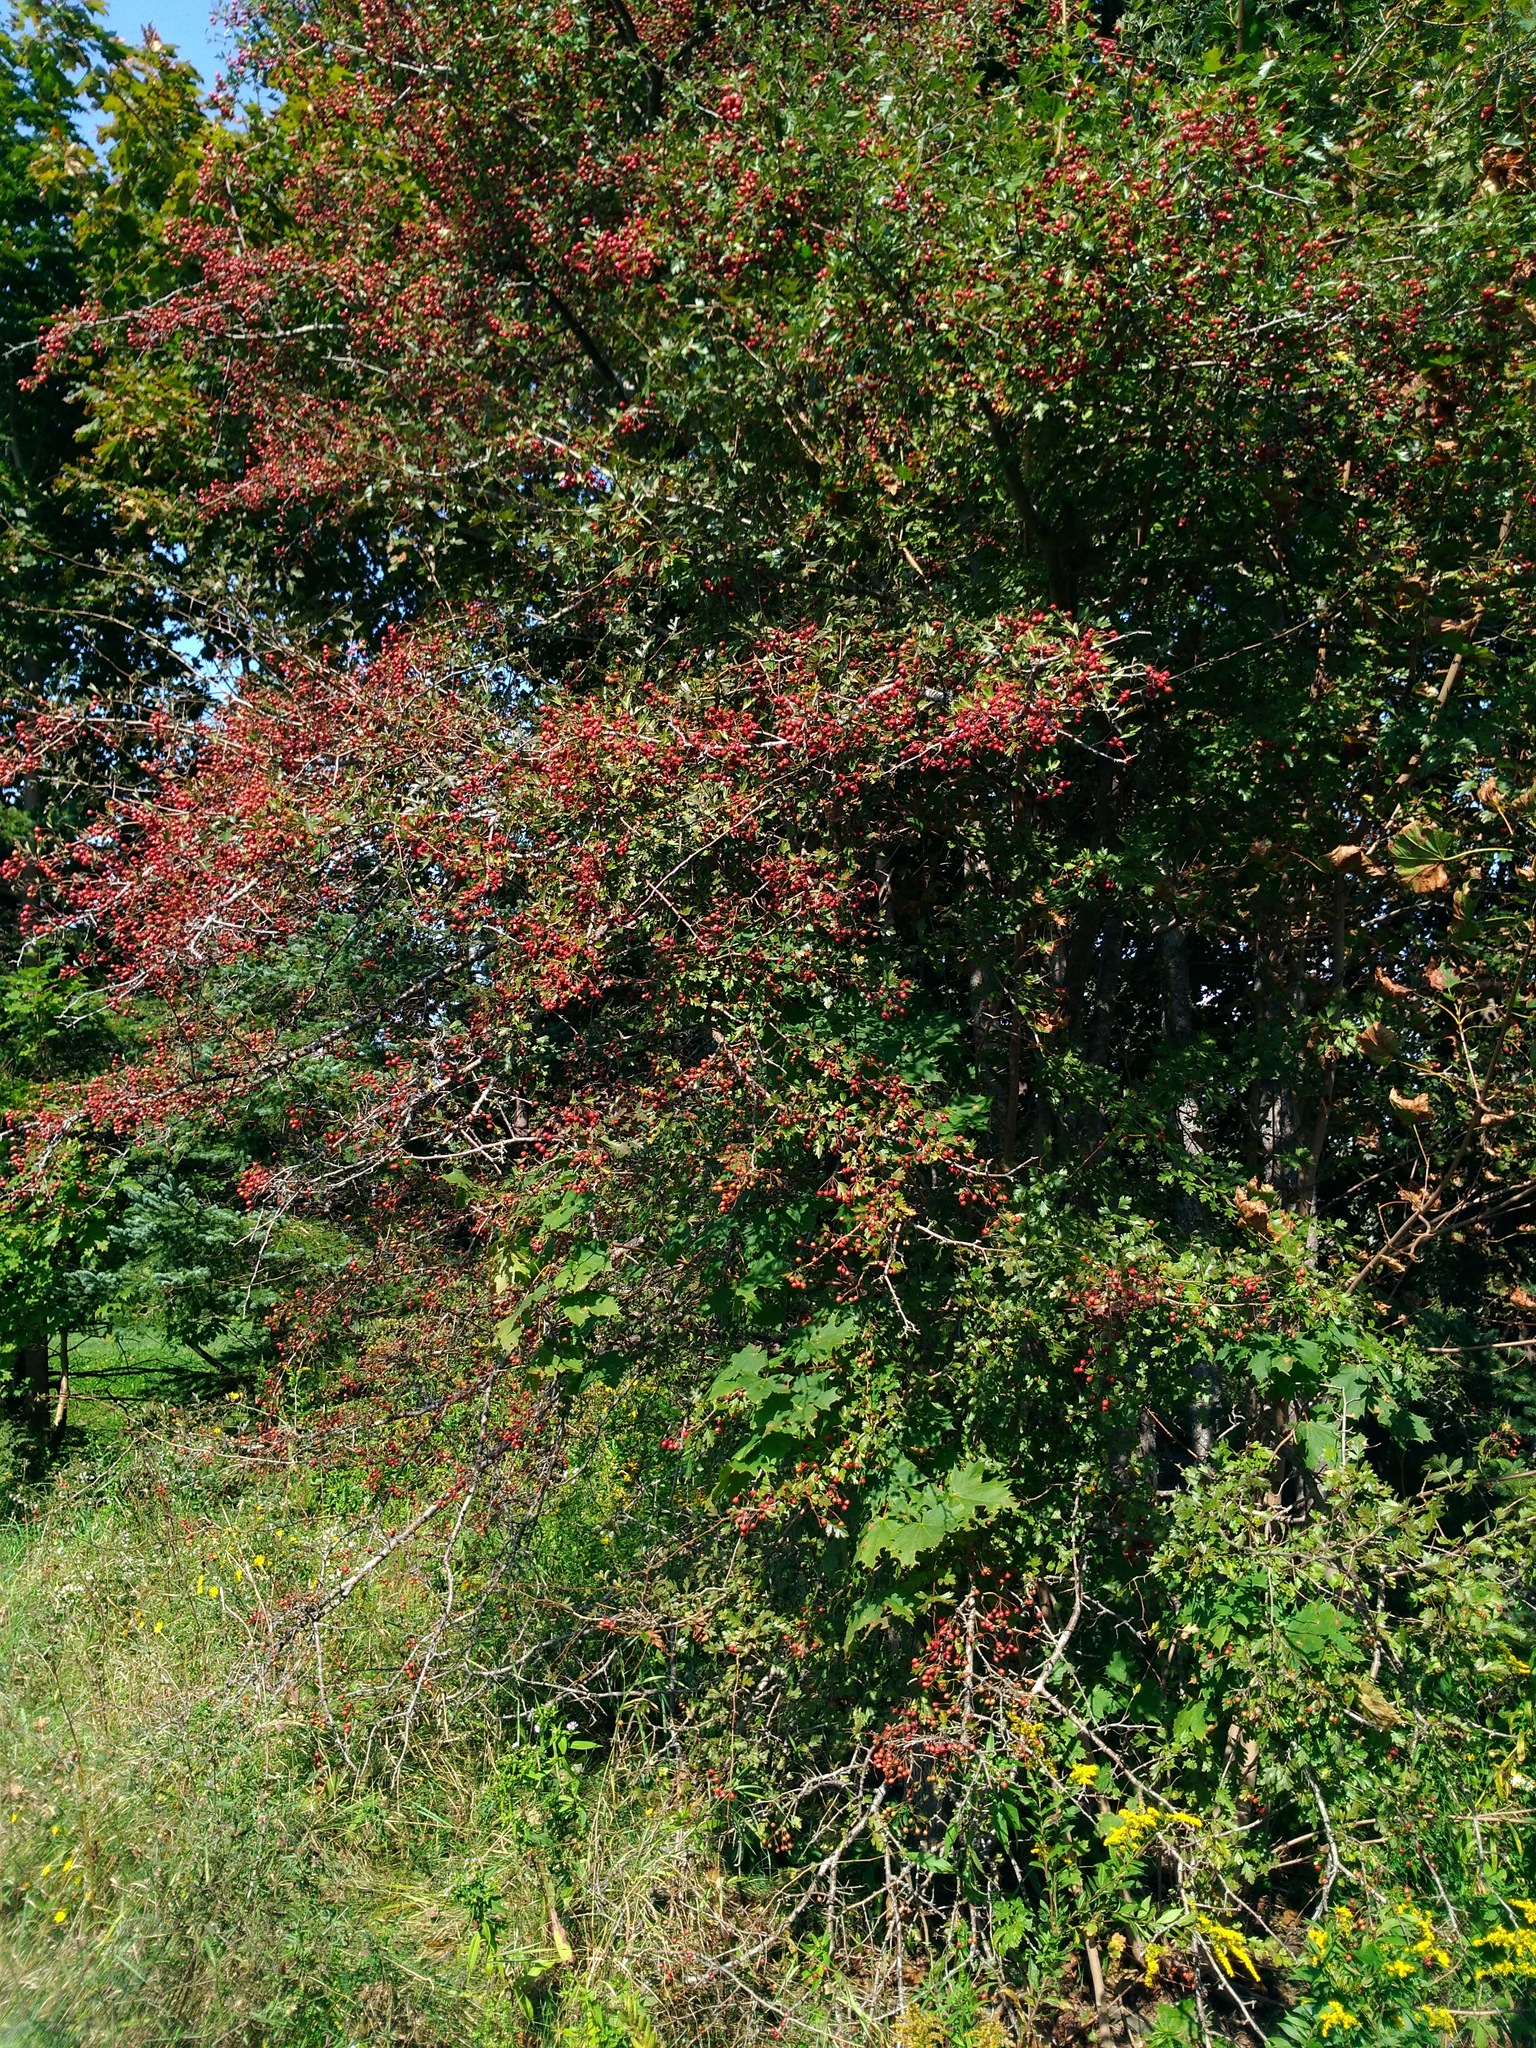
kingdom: Plantae
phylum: Tracheophyta
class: Magnoliopsida
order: Rosales
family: Rosaceae
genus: Crataegus
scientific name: Crataegus monogyna
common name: Hawthorn
